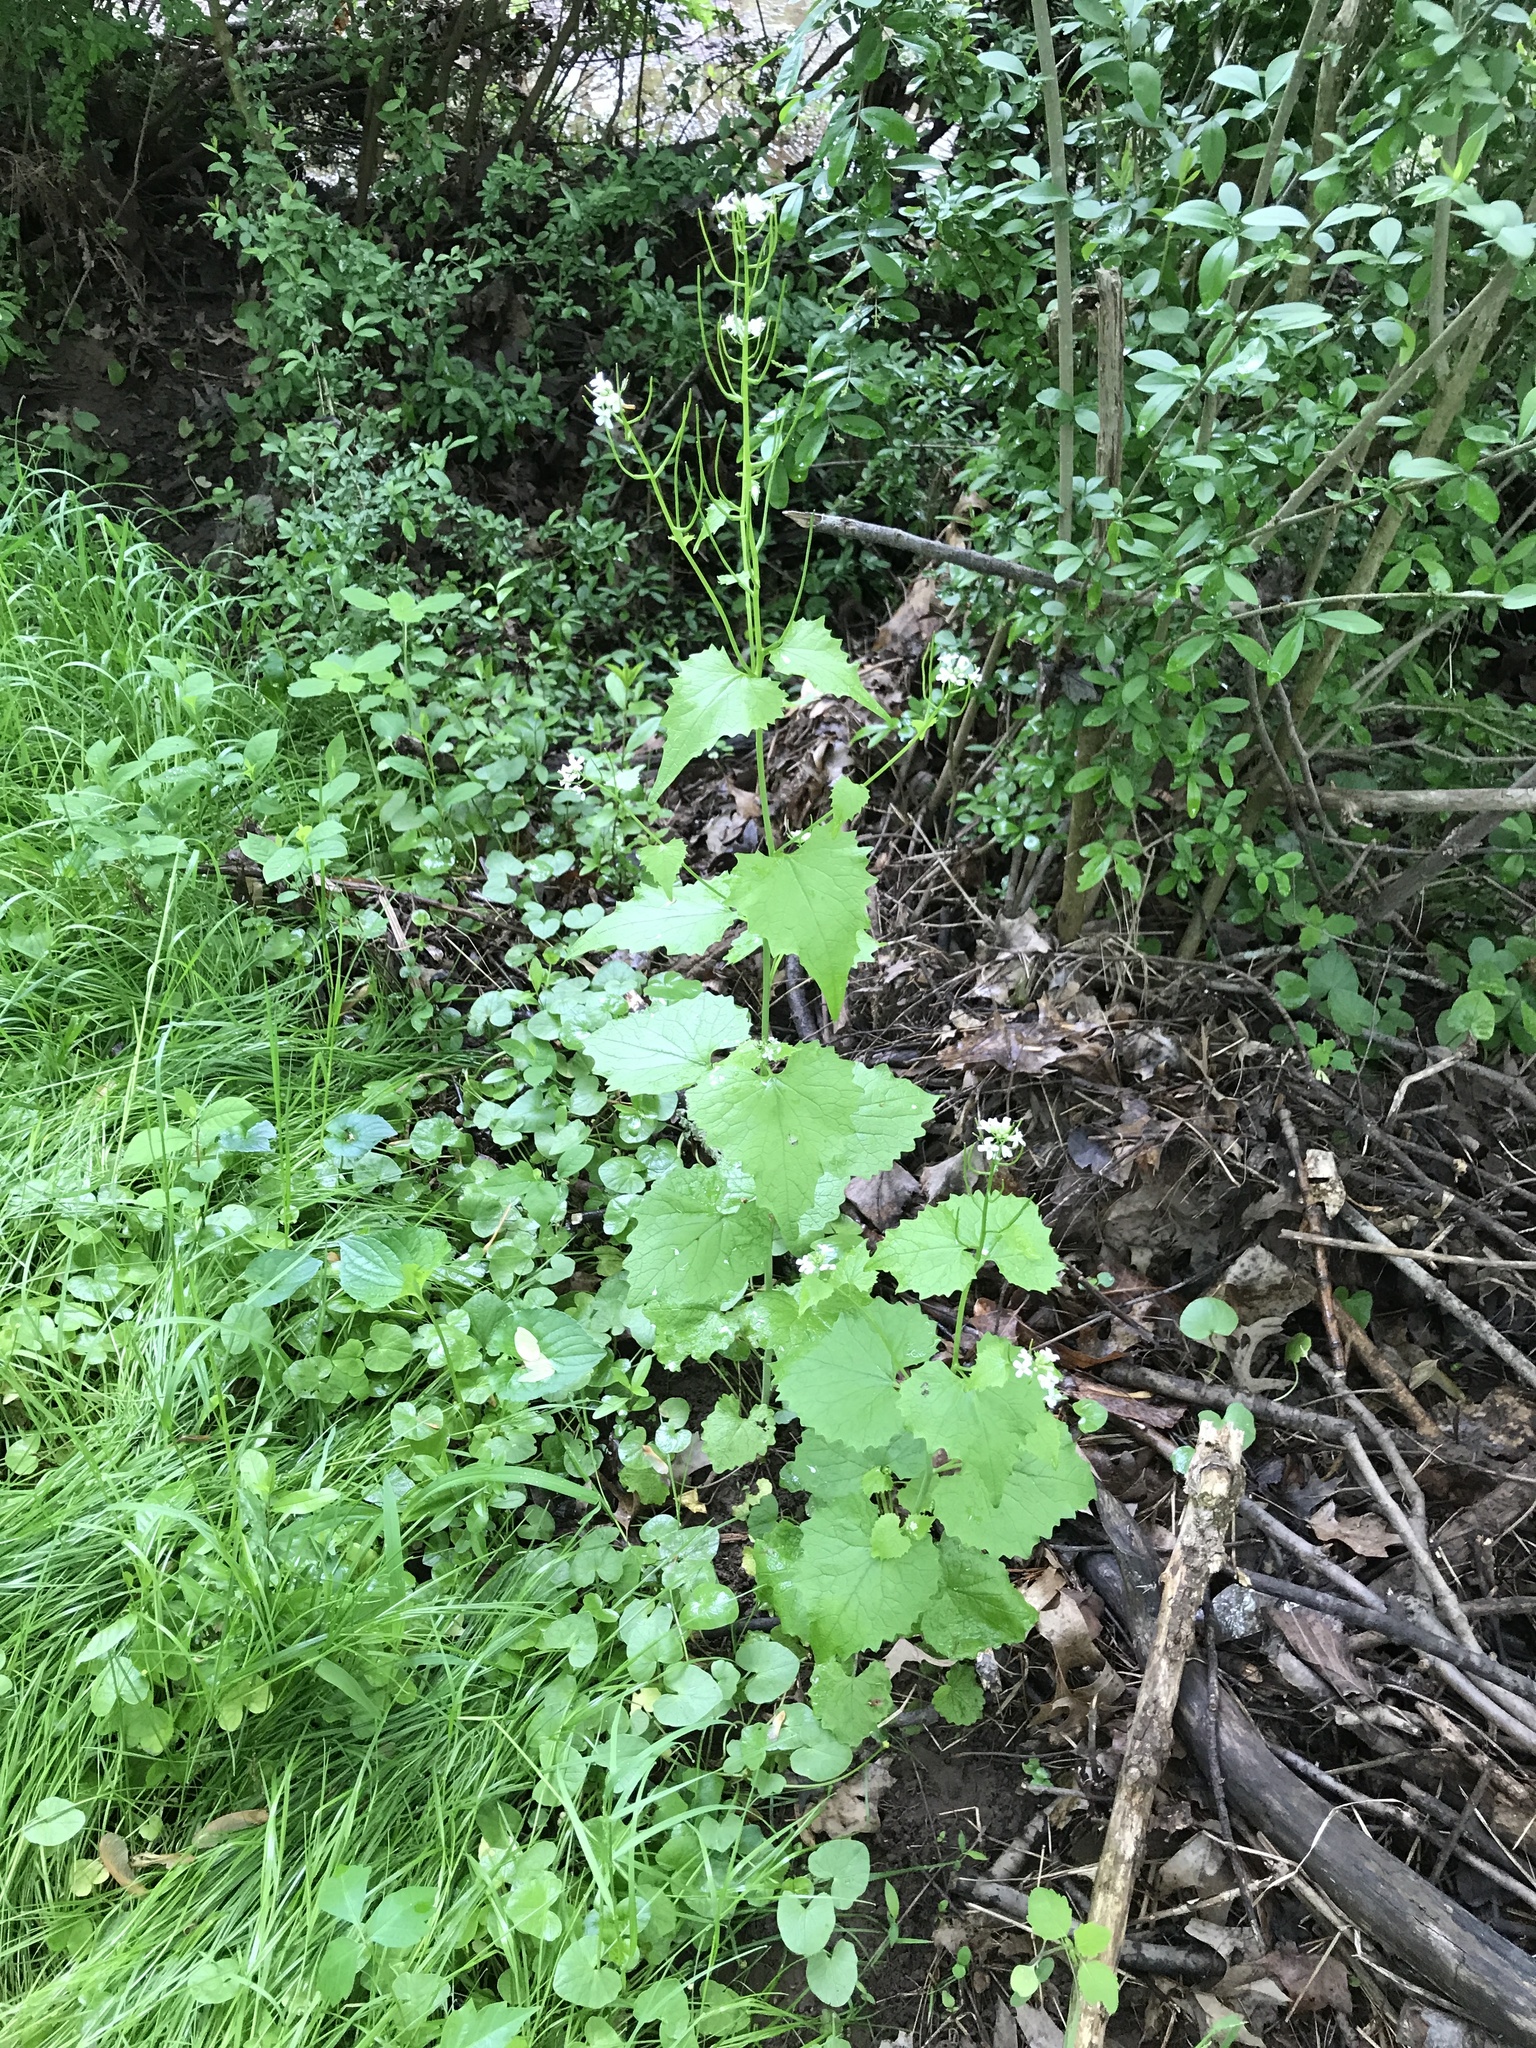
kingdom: Plantae
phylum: Tracheophyta
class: Magnoliopsida
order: Brassicales
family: Brassicaceae
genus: Alliaria
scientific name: Alliaria petiolata
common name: Garlic mustard
